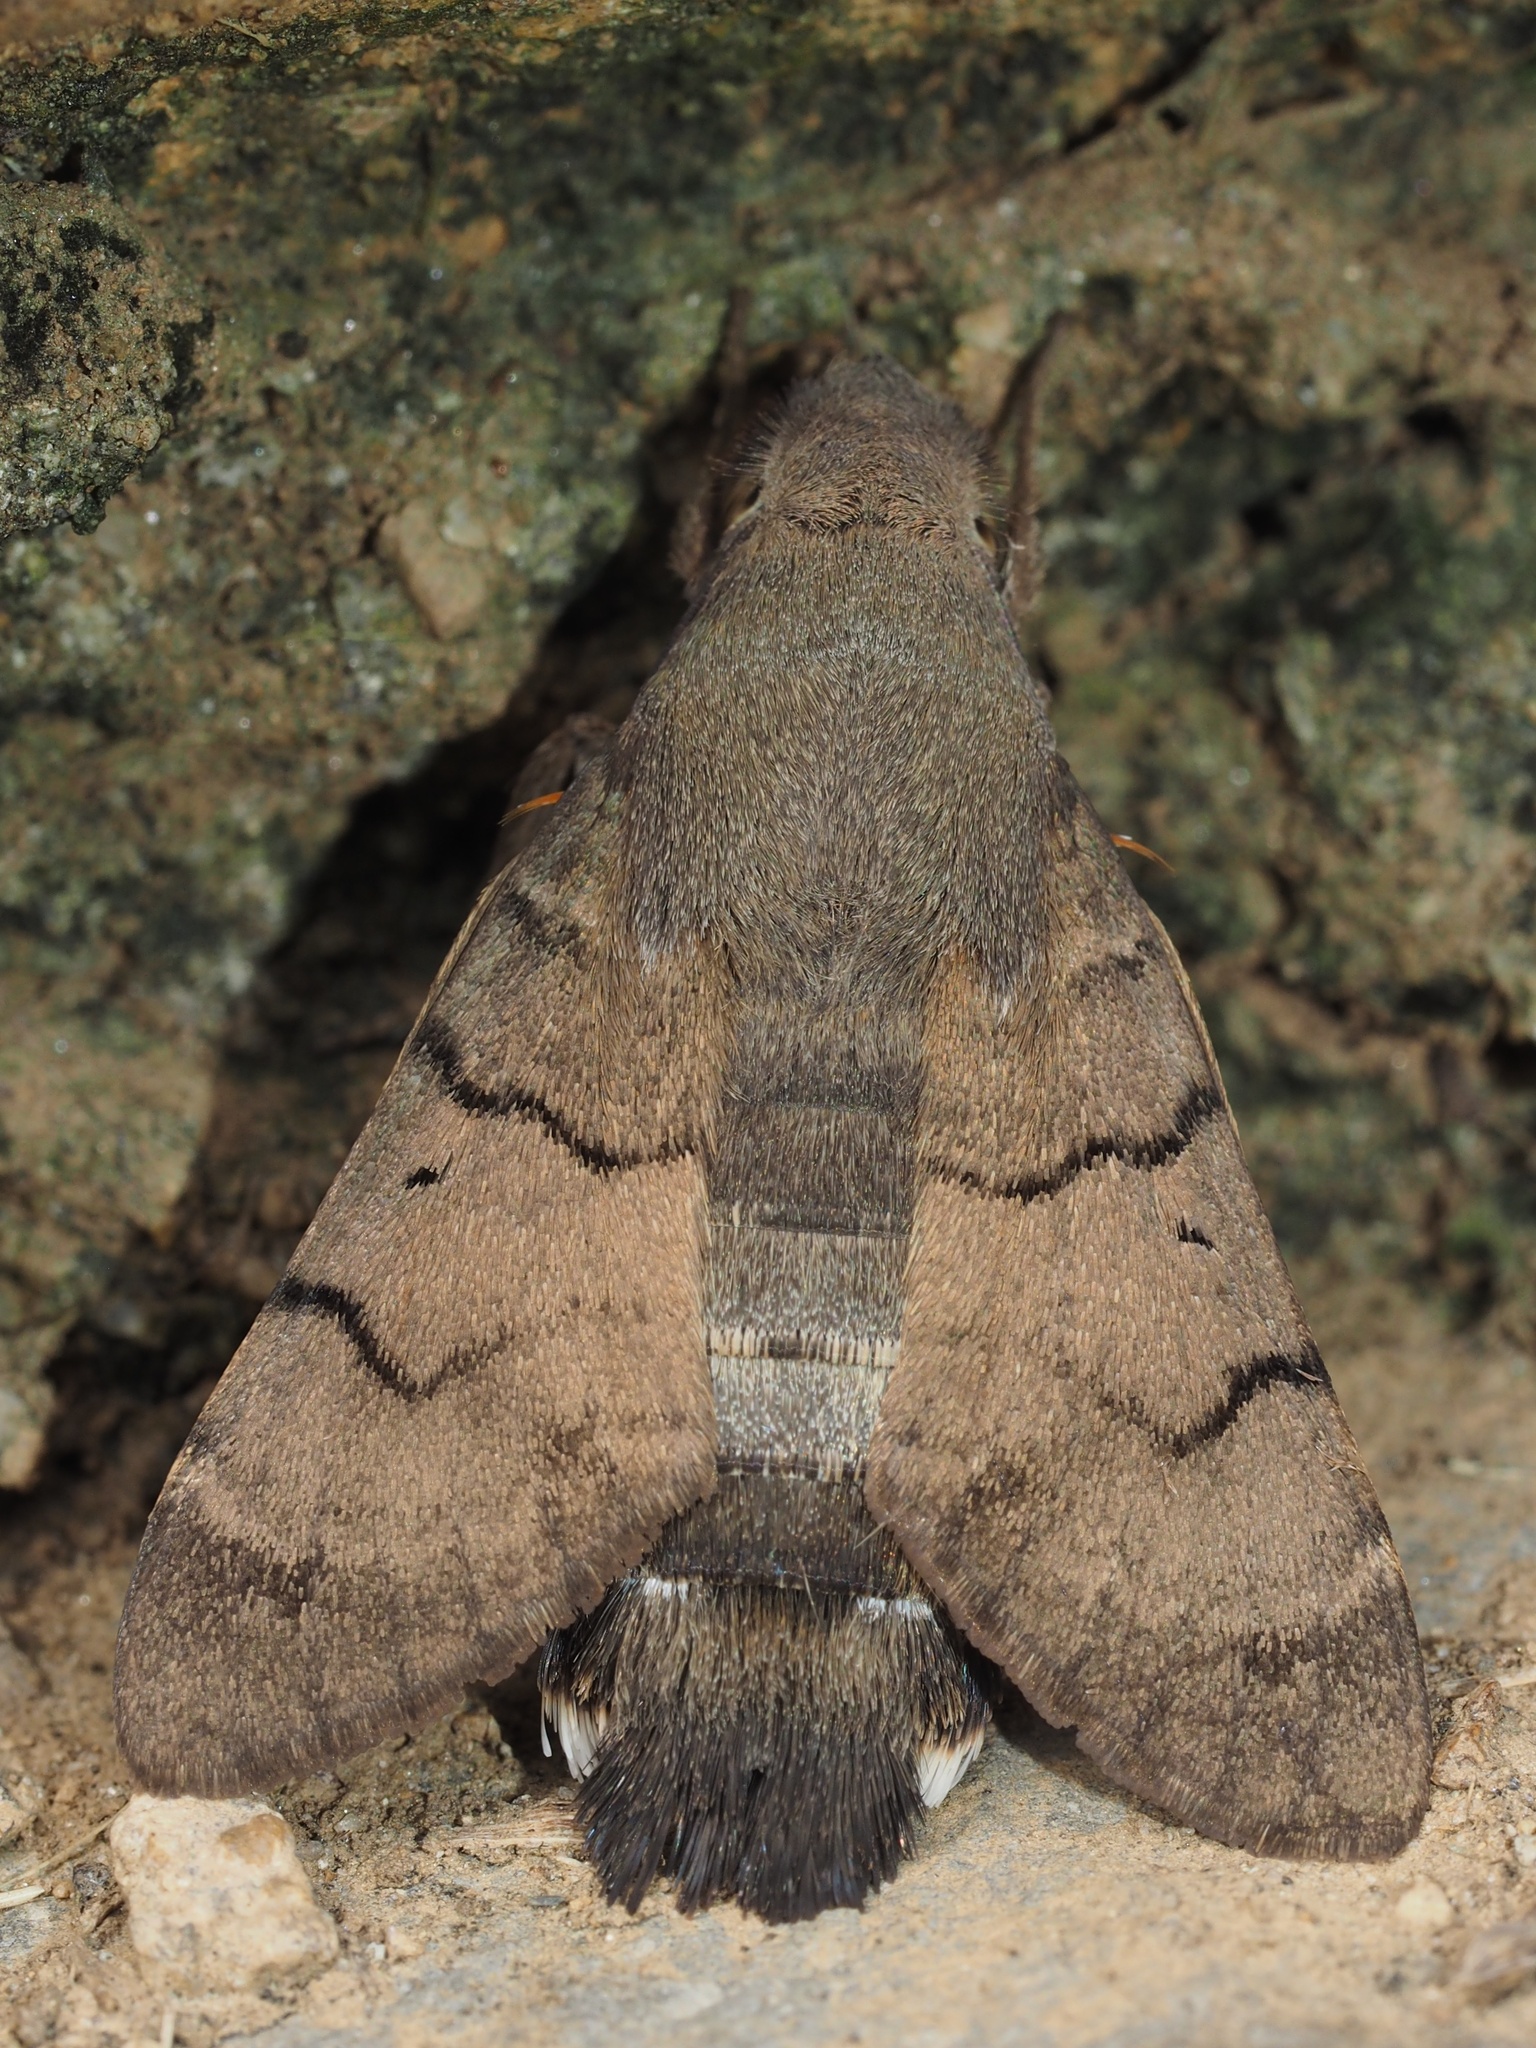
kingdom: Animalia
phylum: Arthropoda
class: Insecta
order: Lepidoptera
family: Sphingidae
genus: Macroglossum
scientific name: Macroglossum stellatarum
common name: Humming-bird hawk-moth
